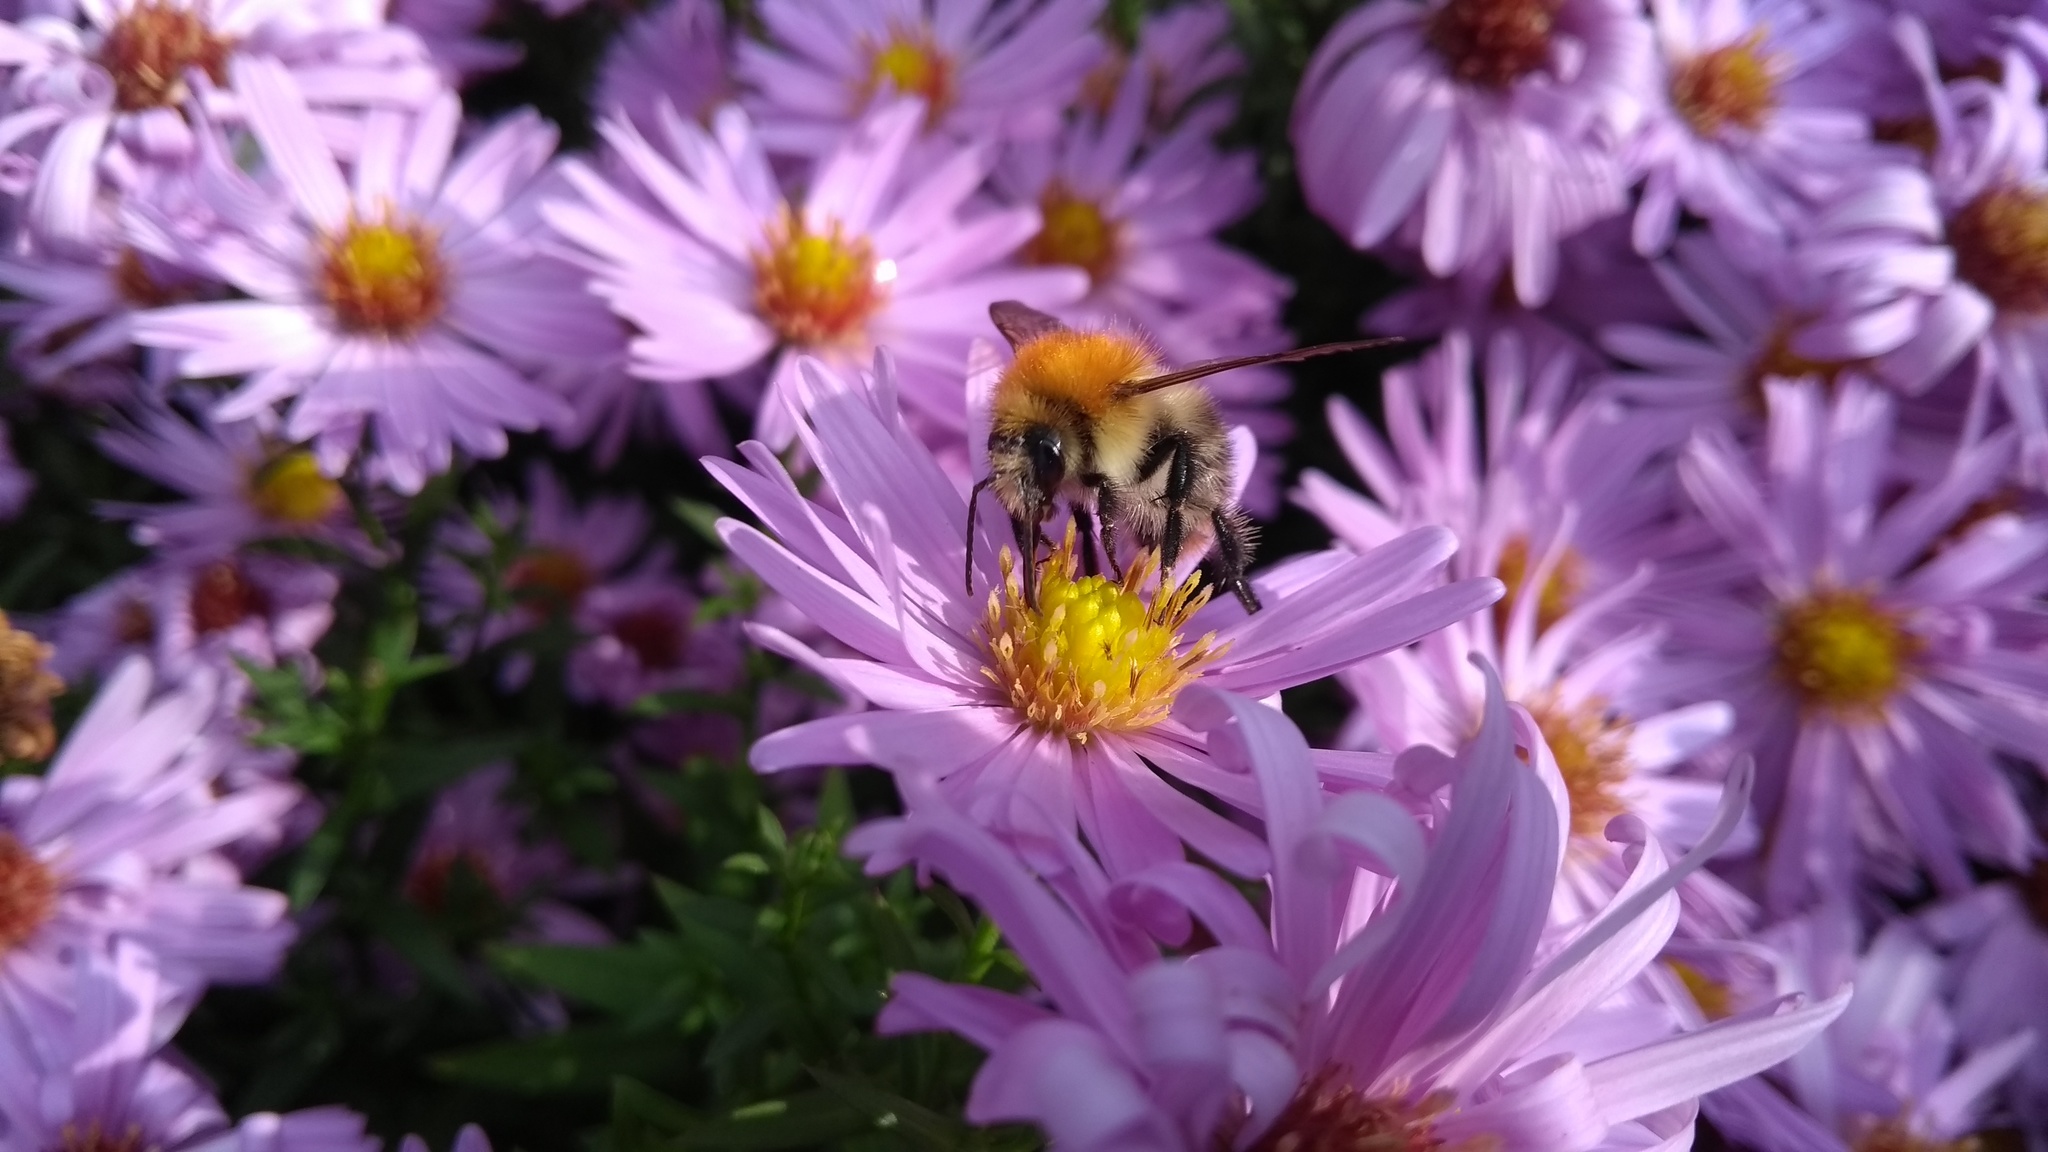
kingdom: Animalia
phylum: Arthropoda
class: Insecta
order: Hymenoptera
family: Apidae
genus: Bombus
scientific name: Bombus pascuorum
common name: Common carder bee
